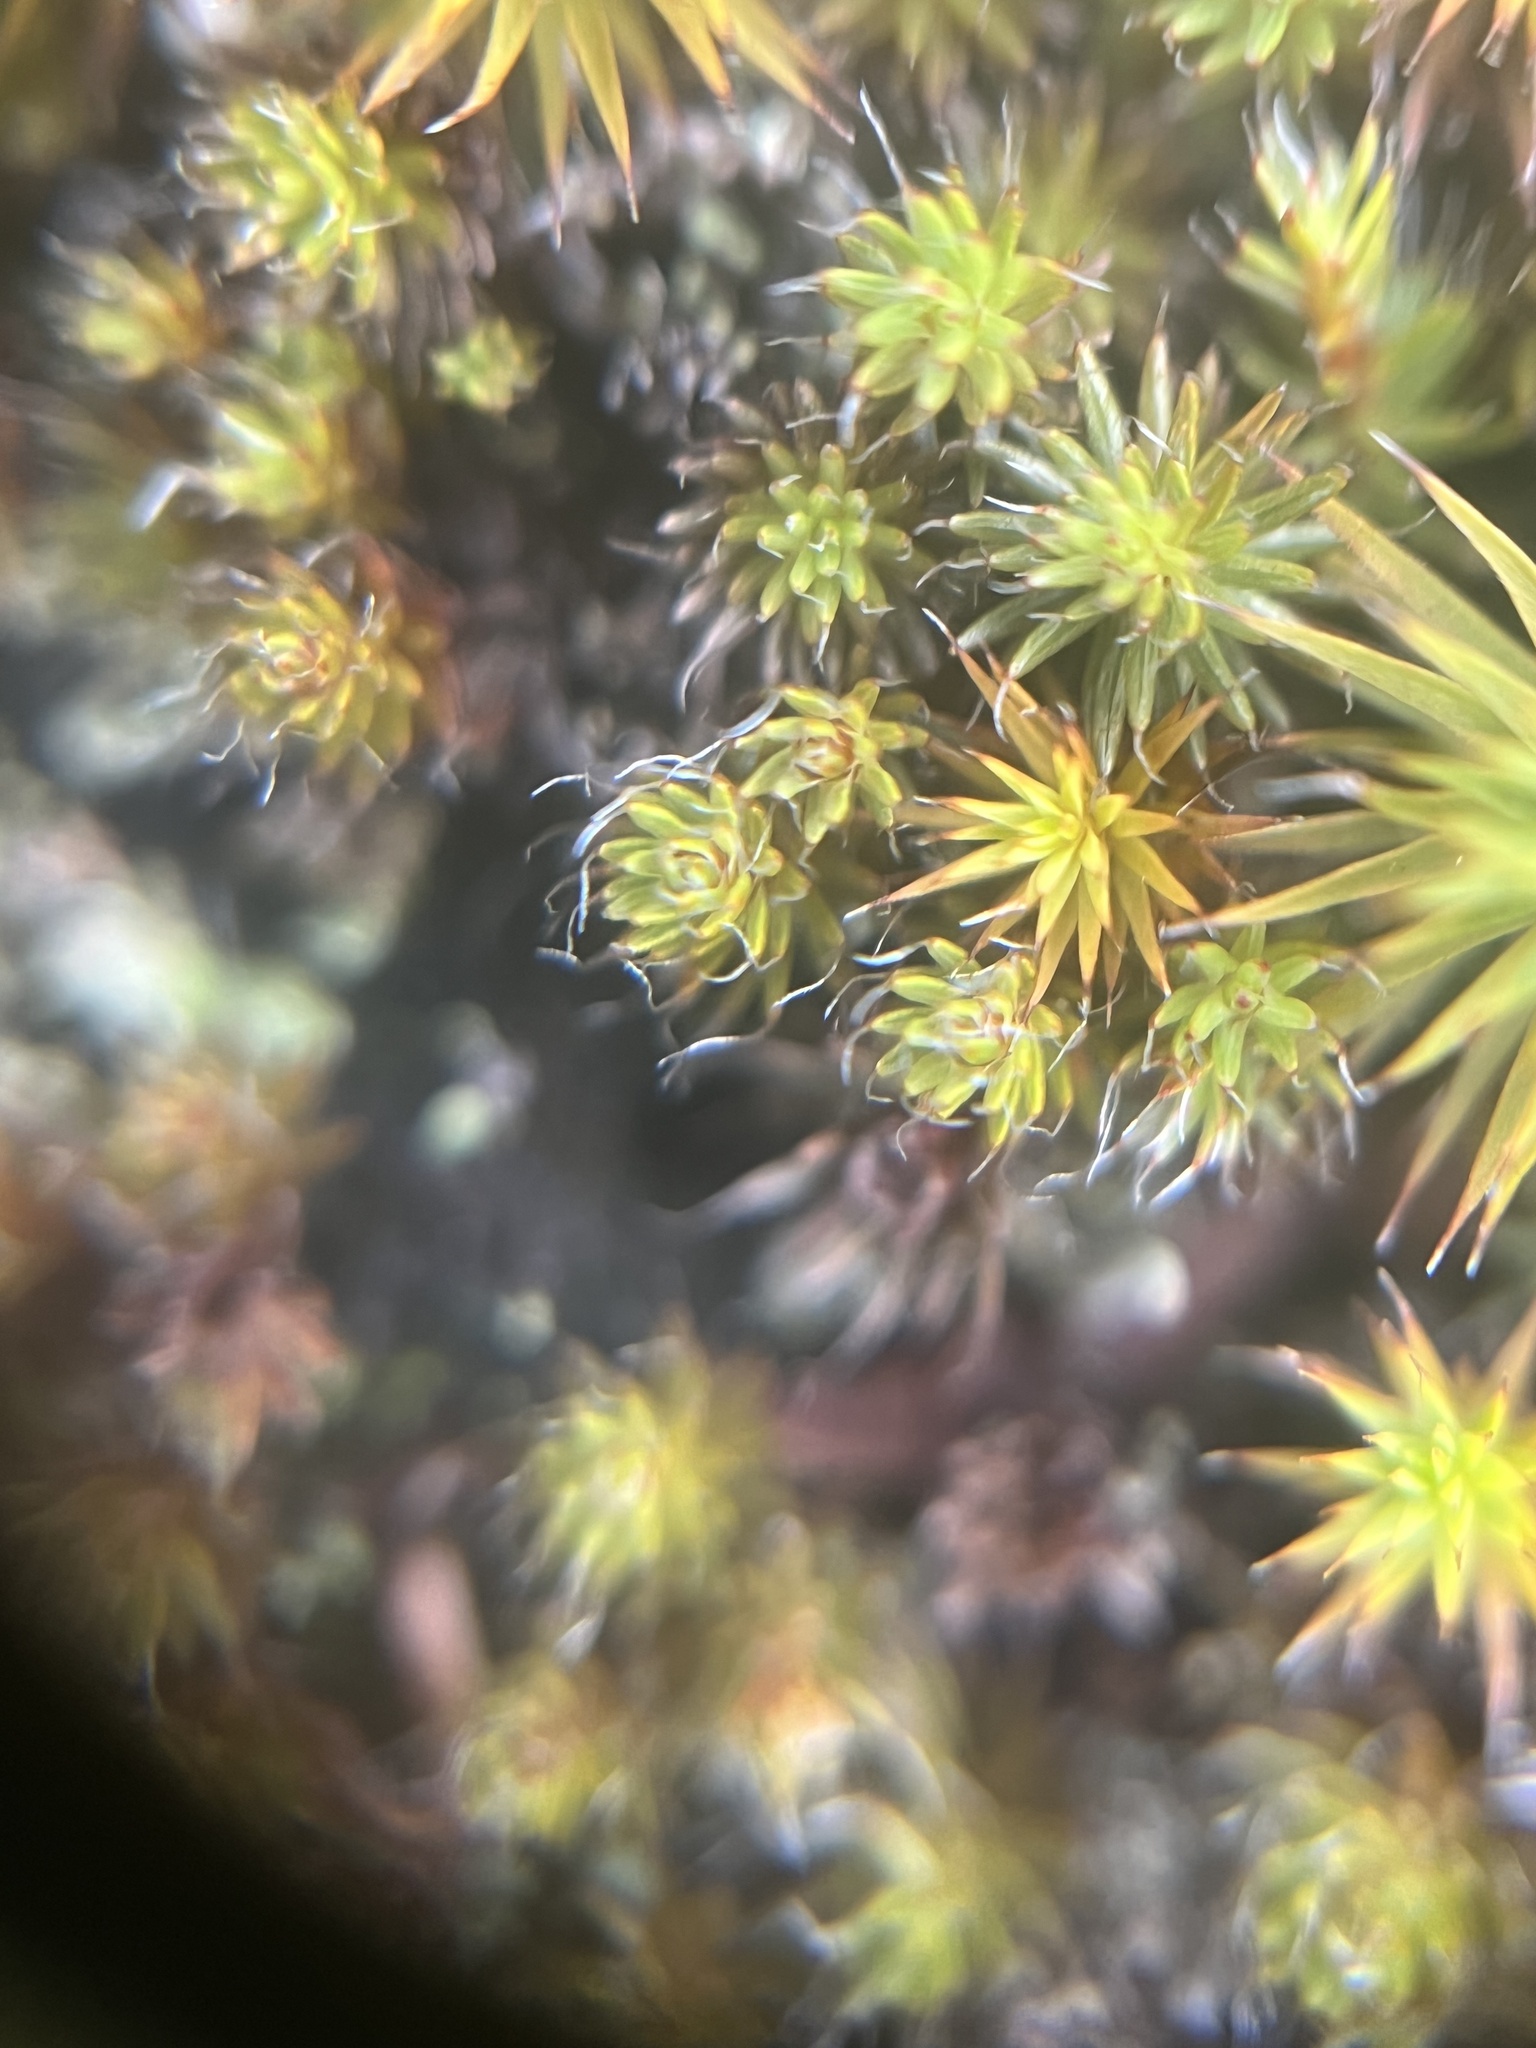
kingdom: Plantae
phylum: Bryophyta
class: Polytrichopsida
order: Polytrichales
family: Polytrichaceae
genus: Polytrichum
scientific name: Polytrichum piliferum
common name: Bristly haircap
